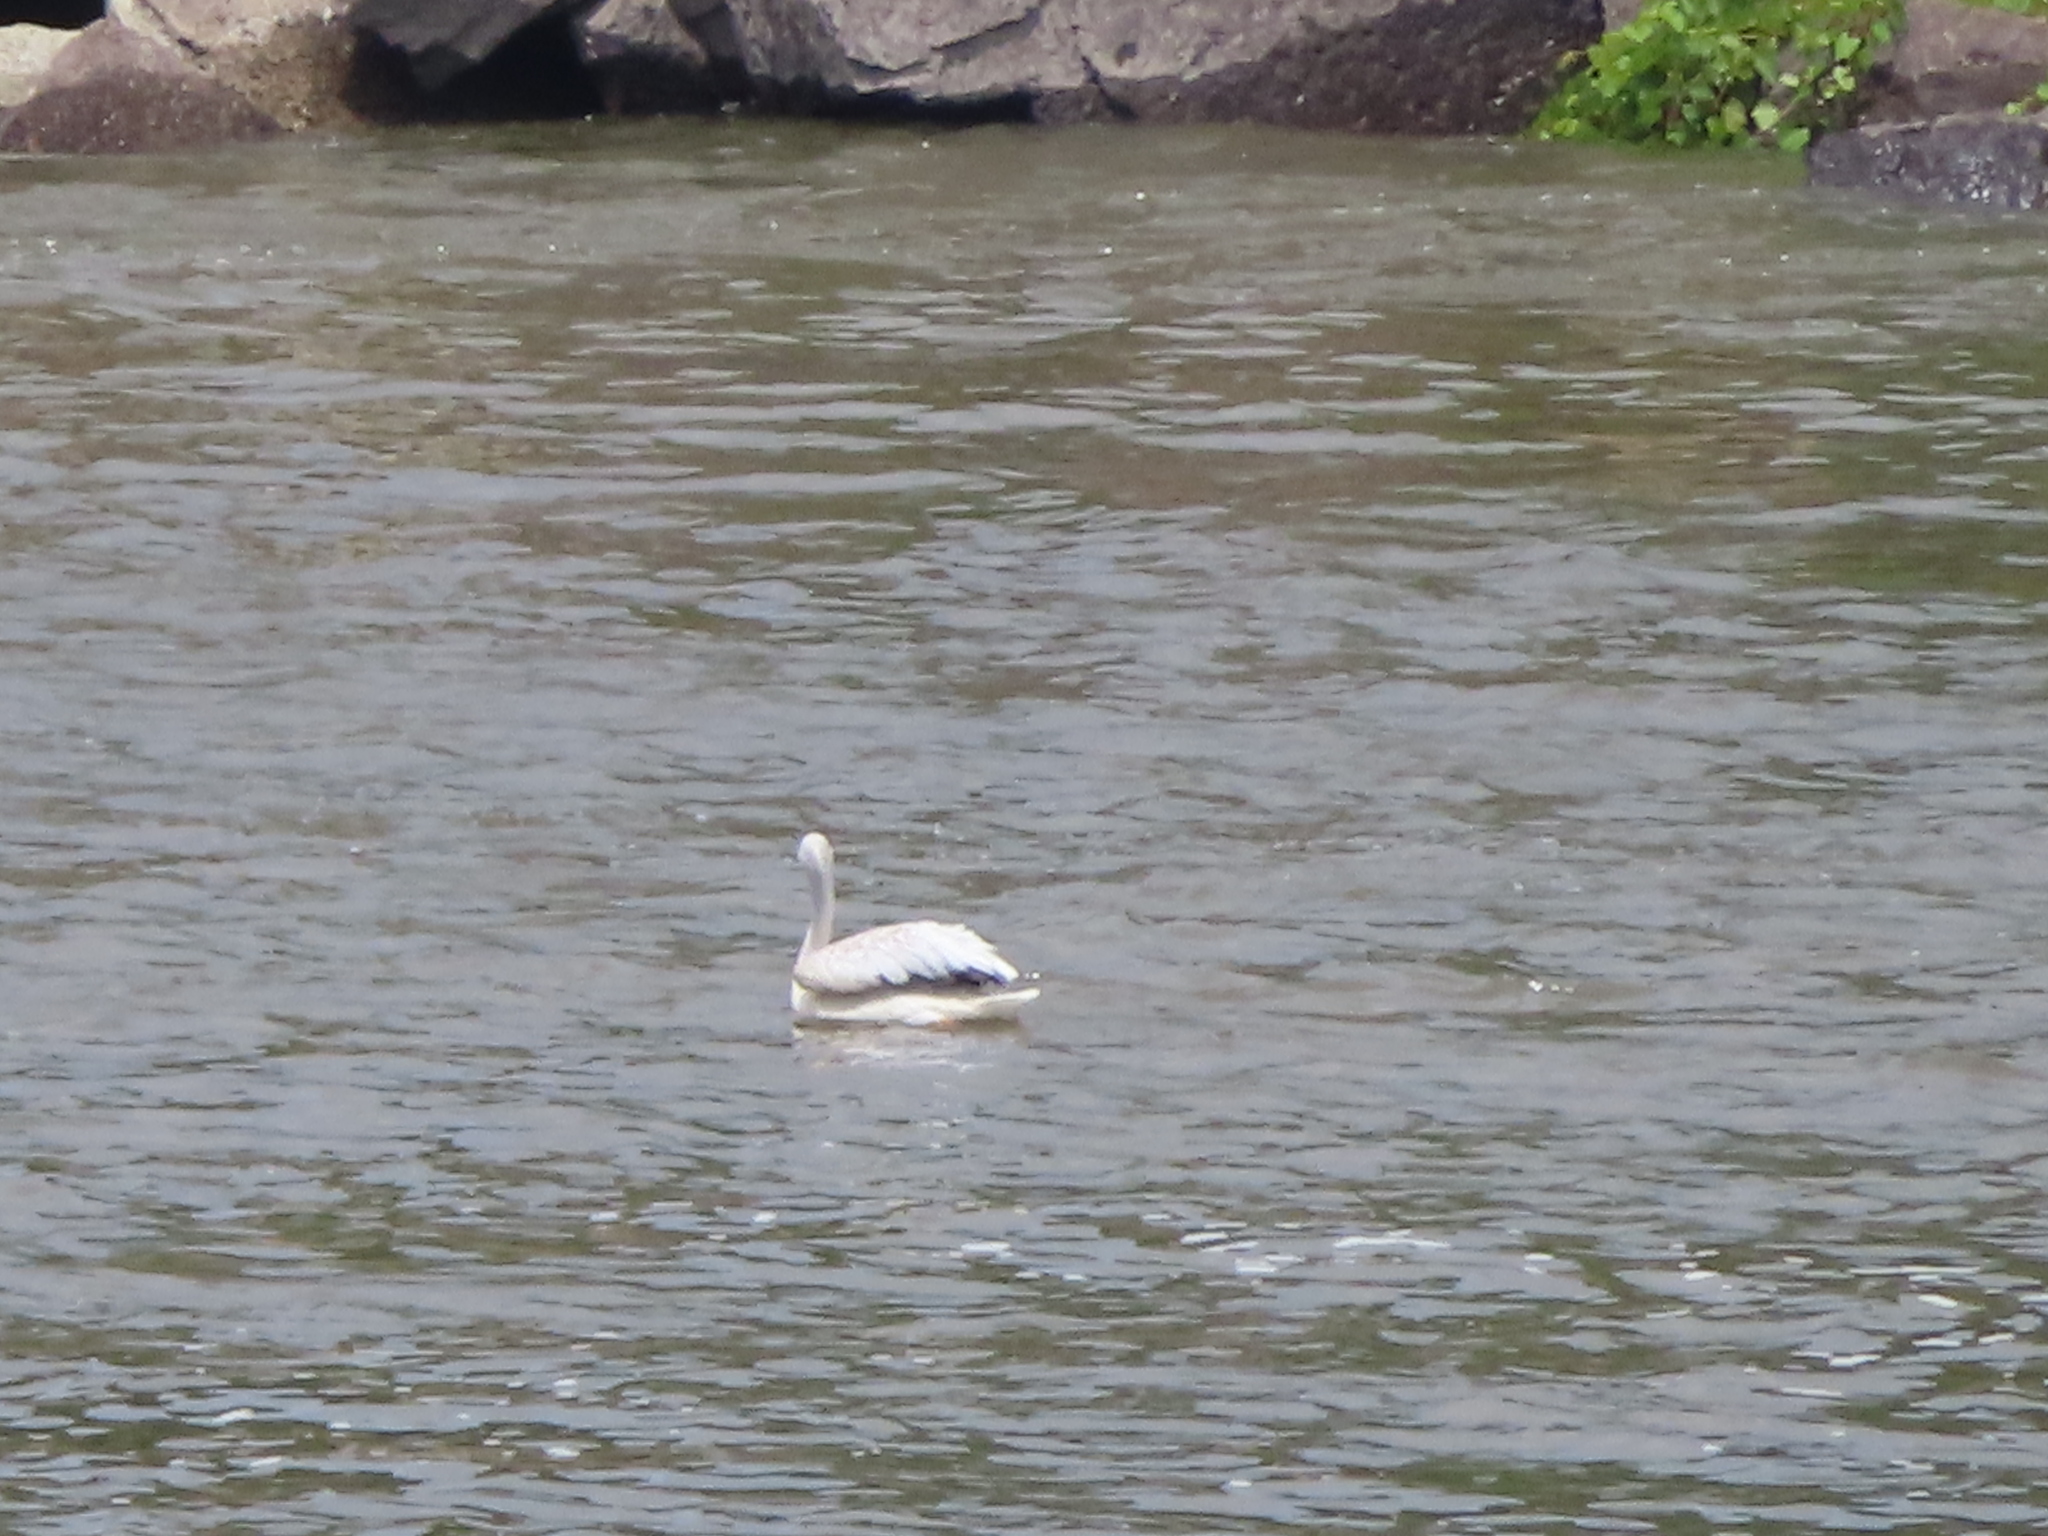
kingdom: Animalia
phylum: Chordata
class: Aves
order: Pelecaniformes
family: Pelecanidae
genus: Pelecanus
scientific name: Pelecanus erythrorhynchos
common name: American white pelican
